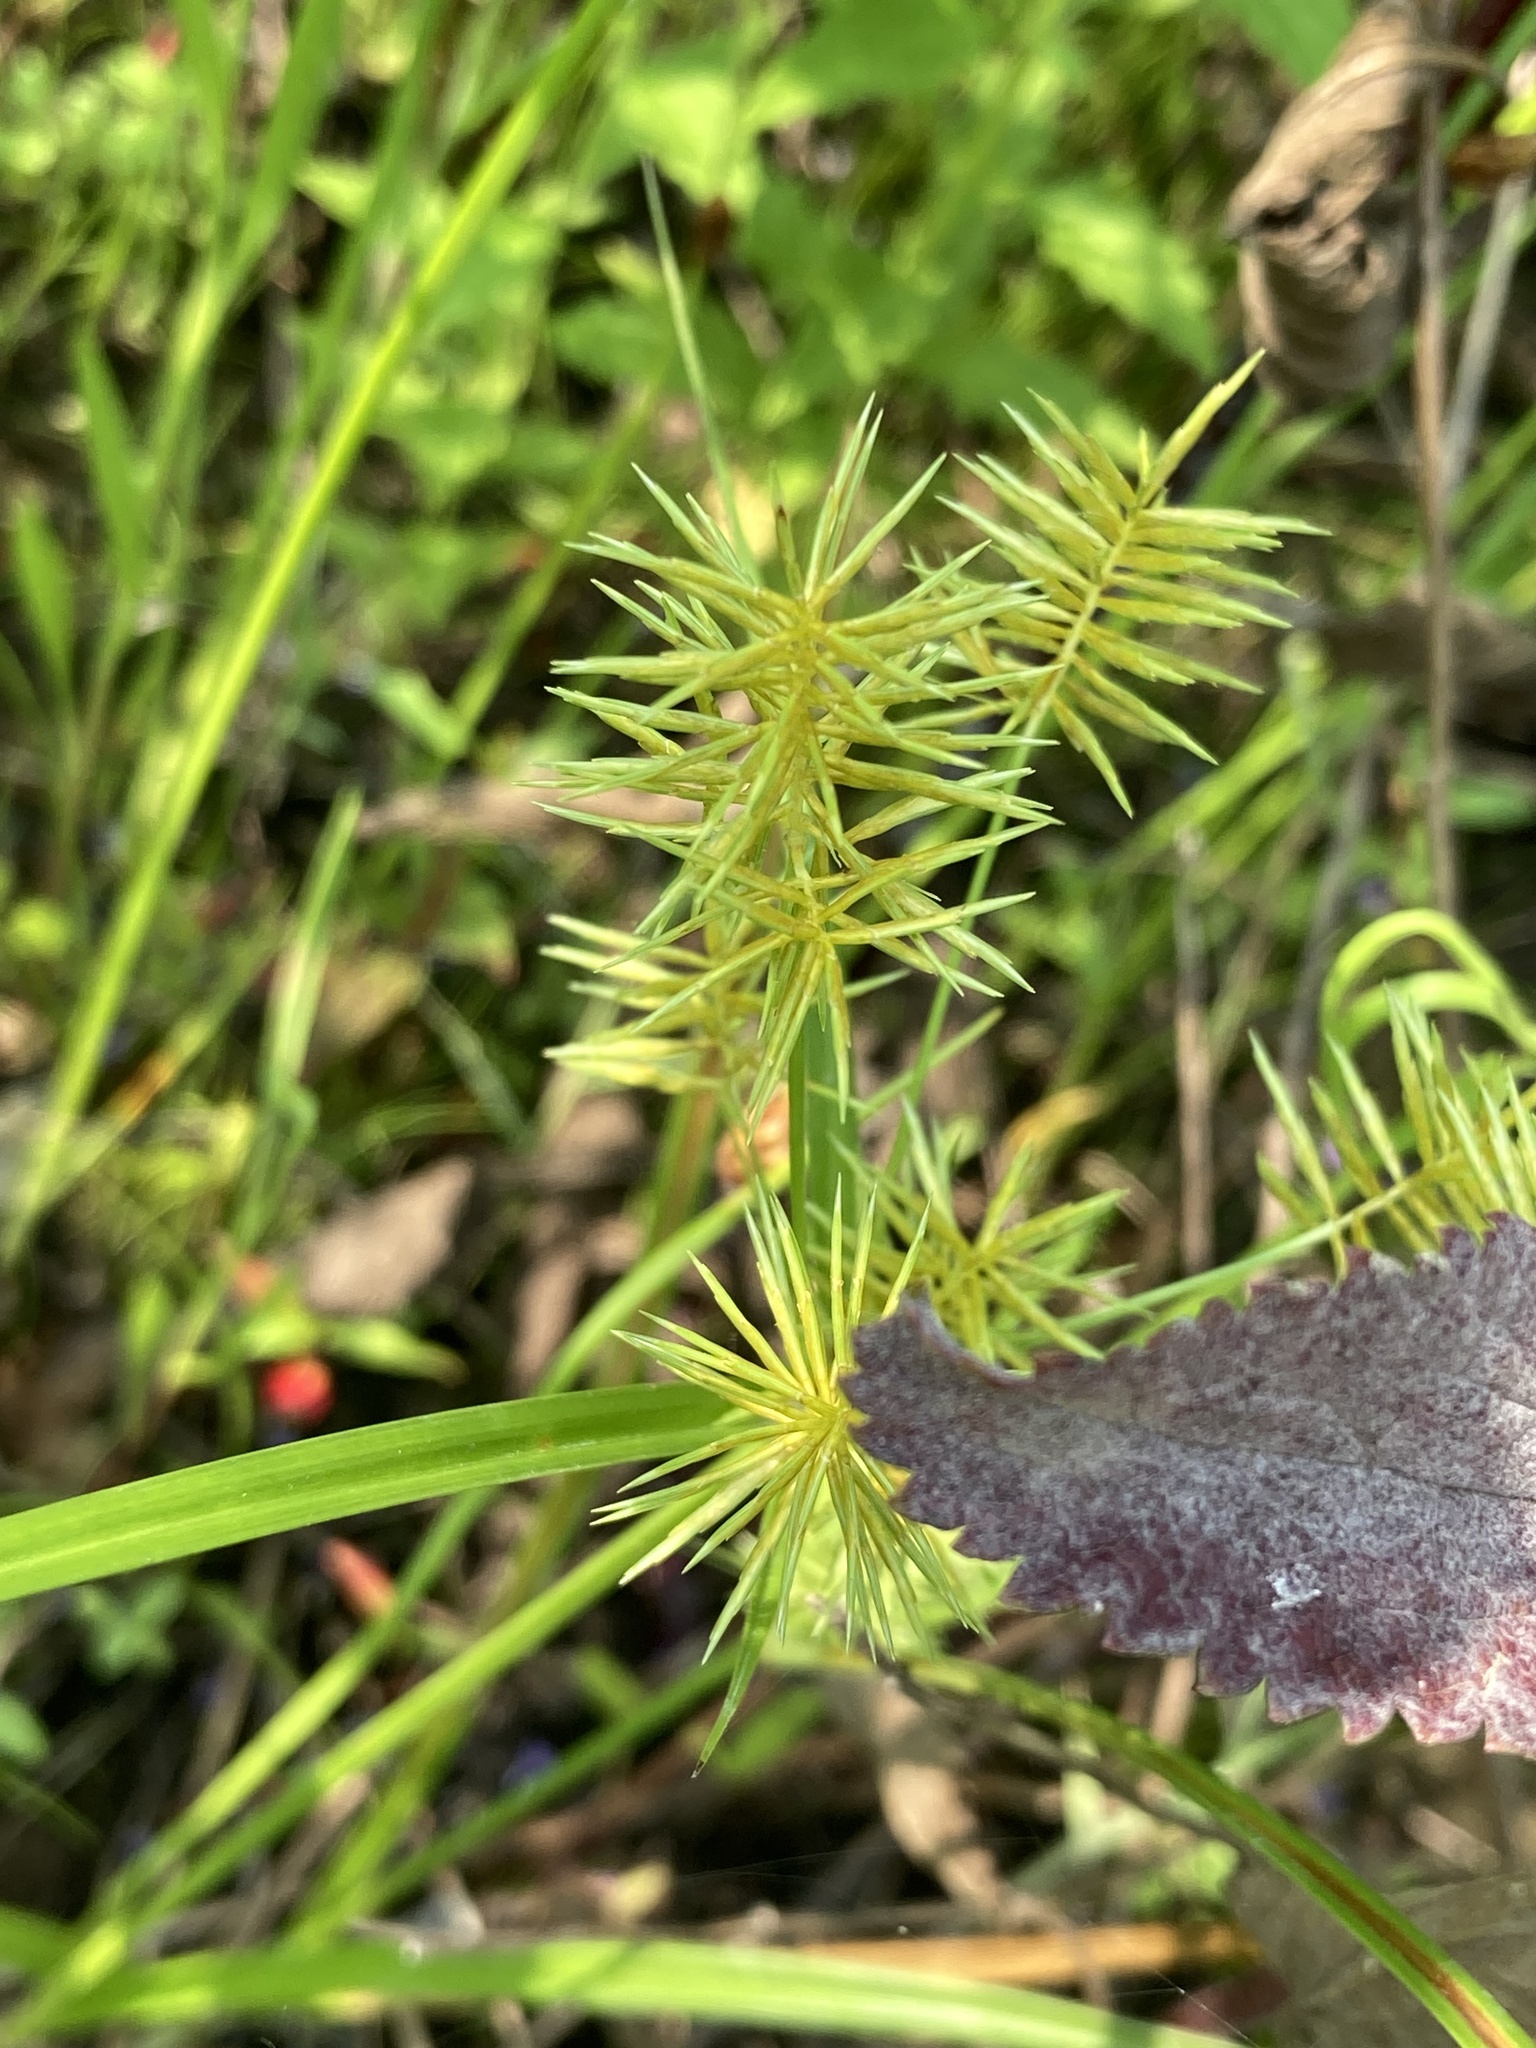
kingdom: Plantae
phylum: Tracheophyta
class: Liliopsida
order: Poales
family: Cyperaceae
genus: Cyperus
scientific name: Cyperus strigosus
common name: False nutsedge
